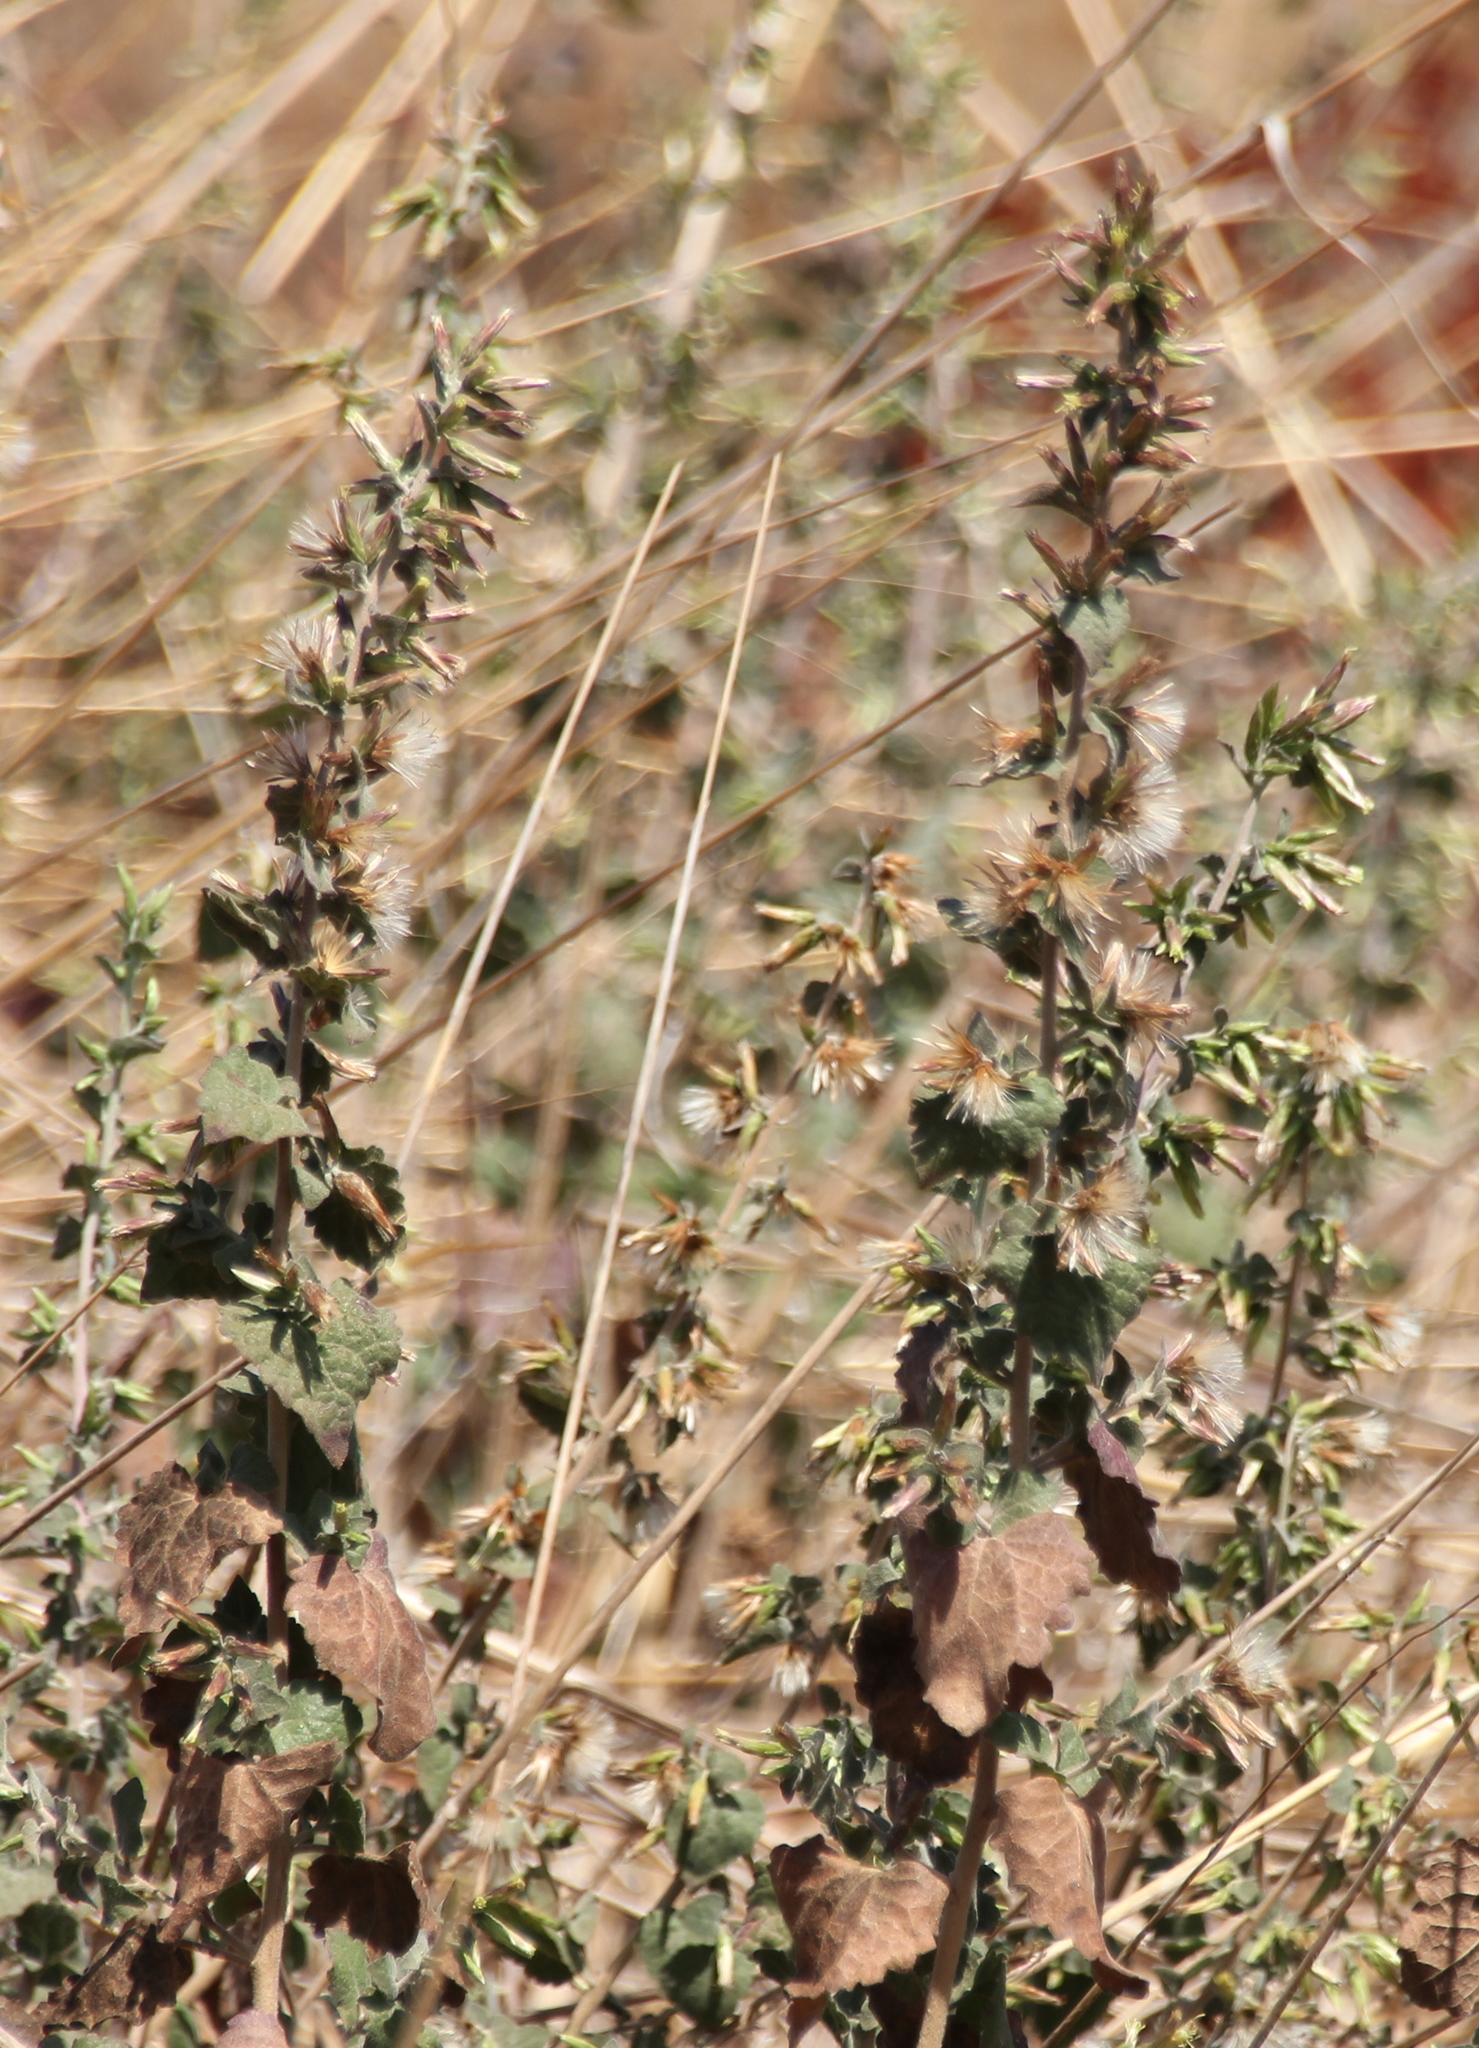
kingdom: Plantae
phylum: Tracheophyta
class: Magnoliopsida
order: Asterales
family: Asteraceae
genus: Brickellia
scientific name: Brickellia californica
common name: California brickellbush
